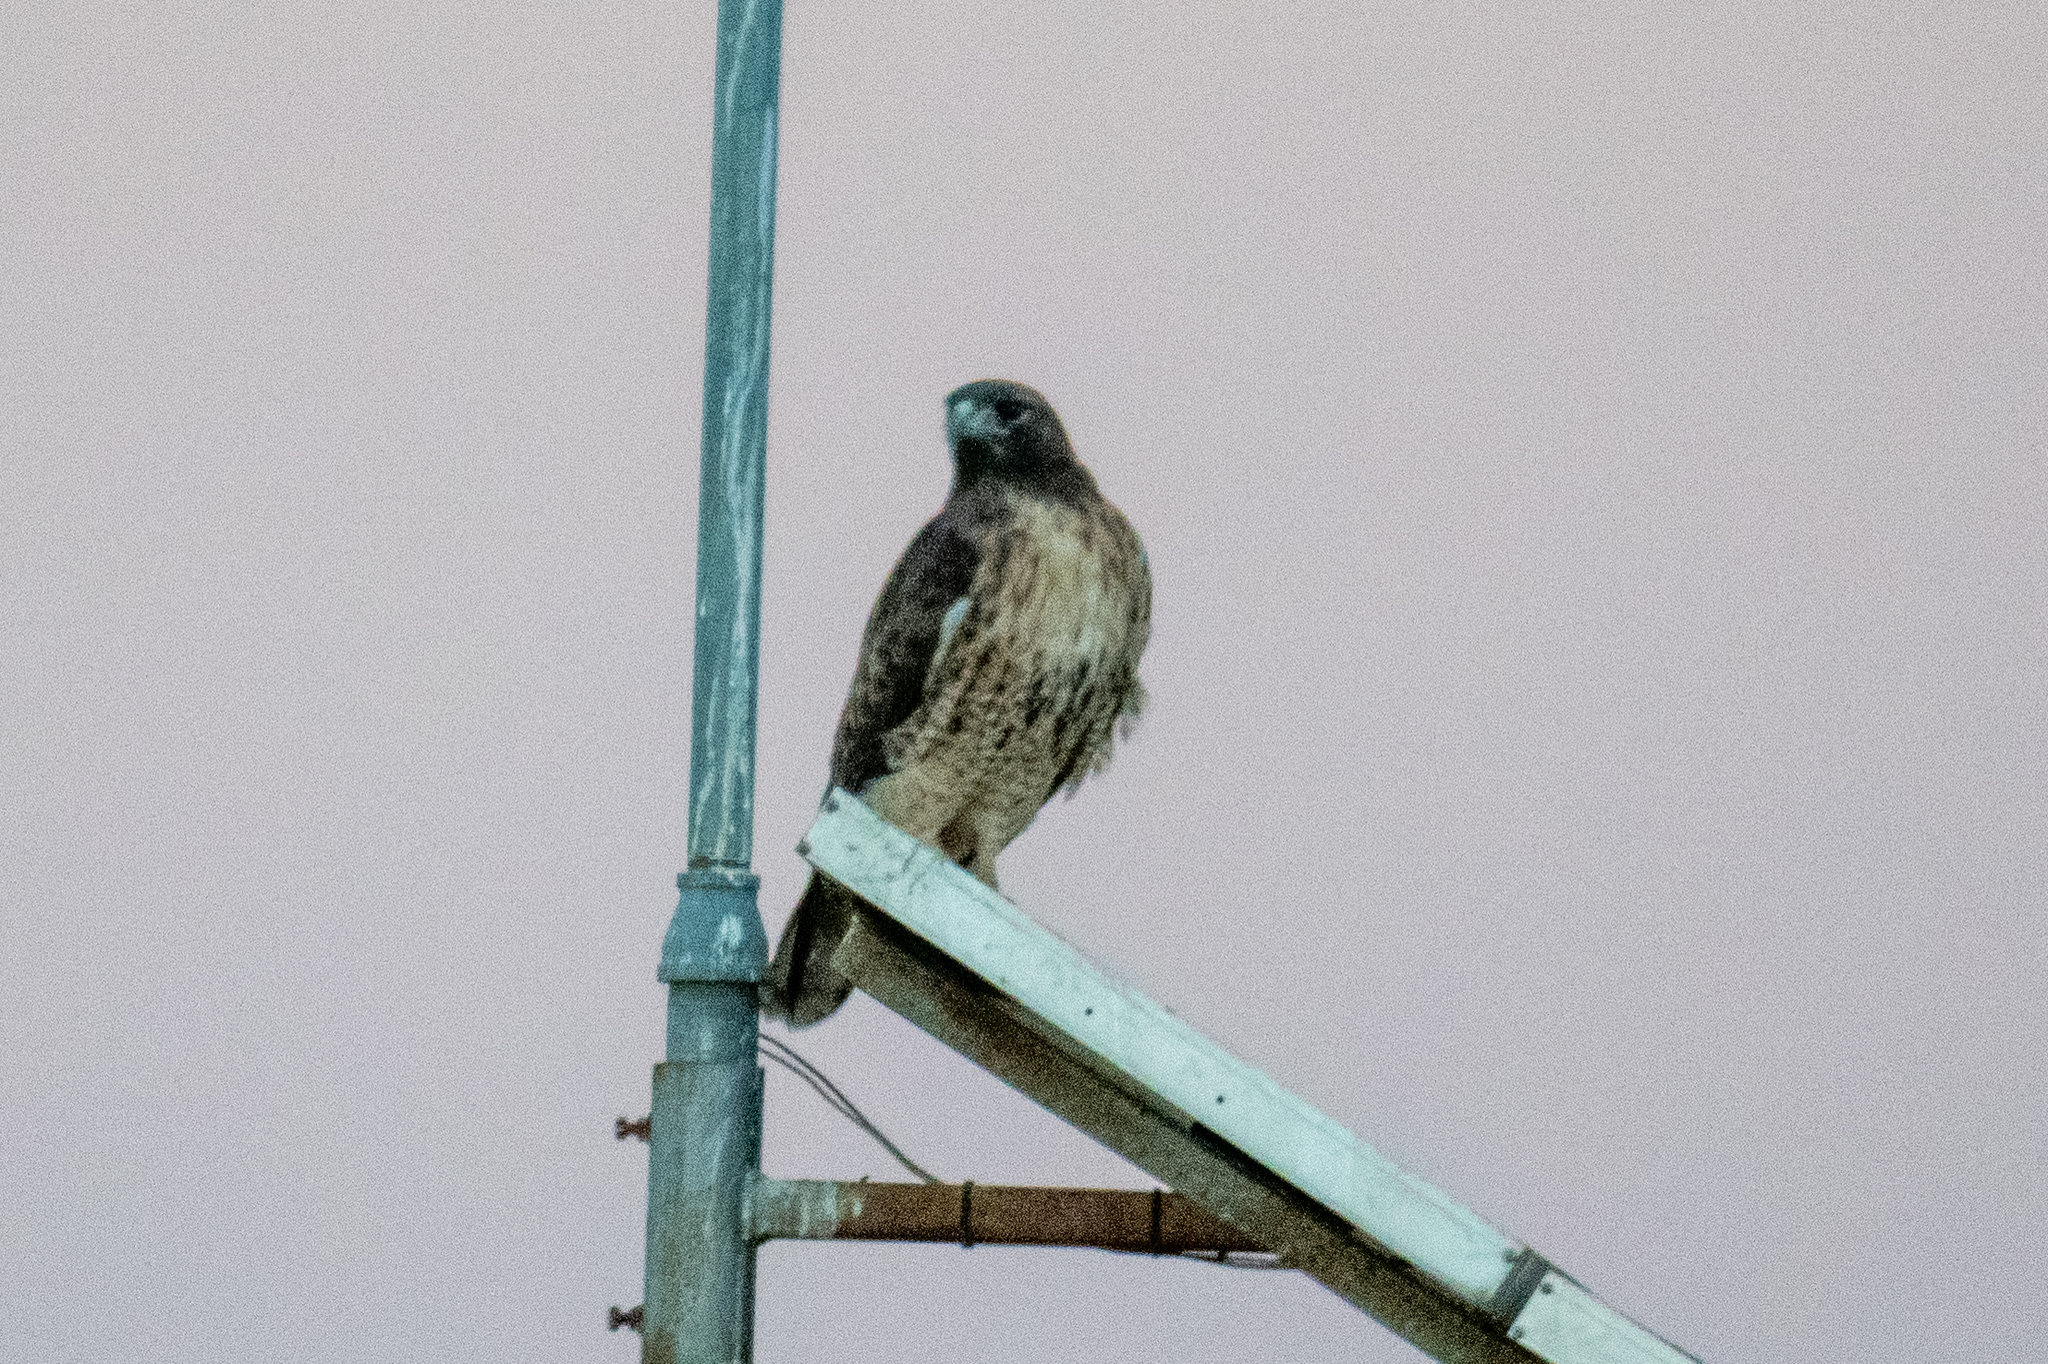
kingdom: Animalia
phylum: Chordata
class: Aves
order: Accipitriformes
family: Accipitridae
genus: Buteo
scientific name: Buteo jamaicensis
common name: Red-tailed hawk
